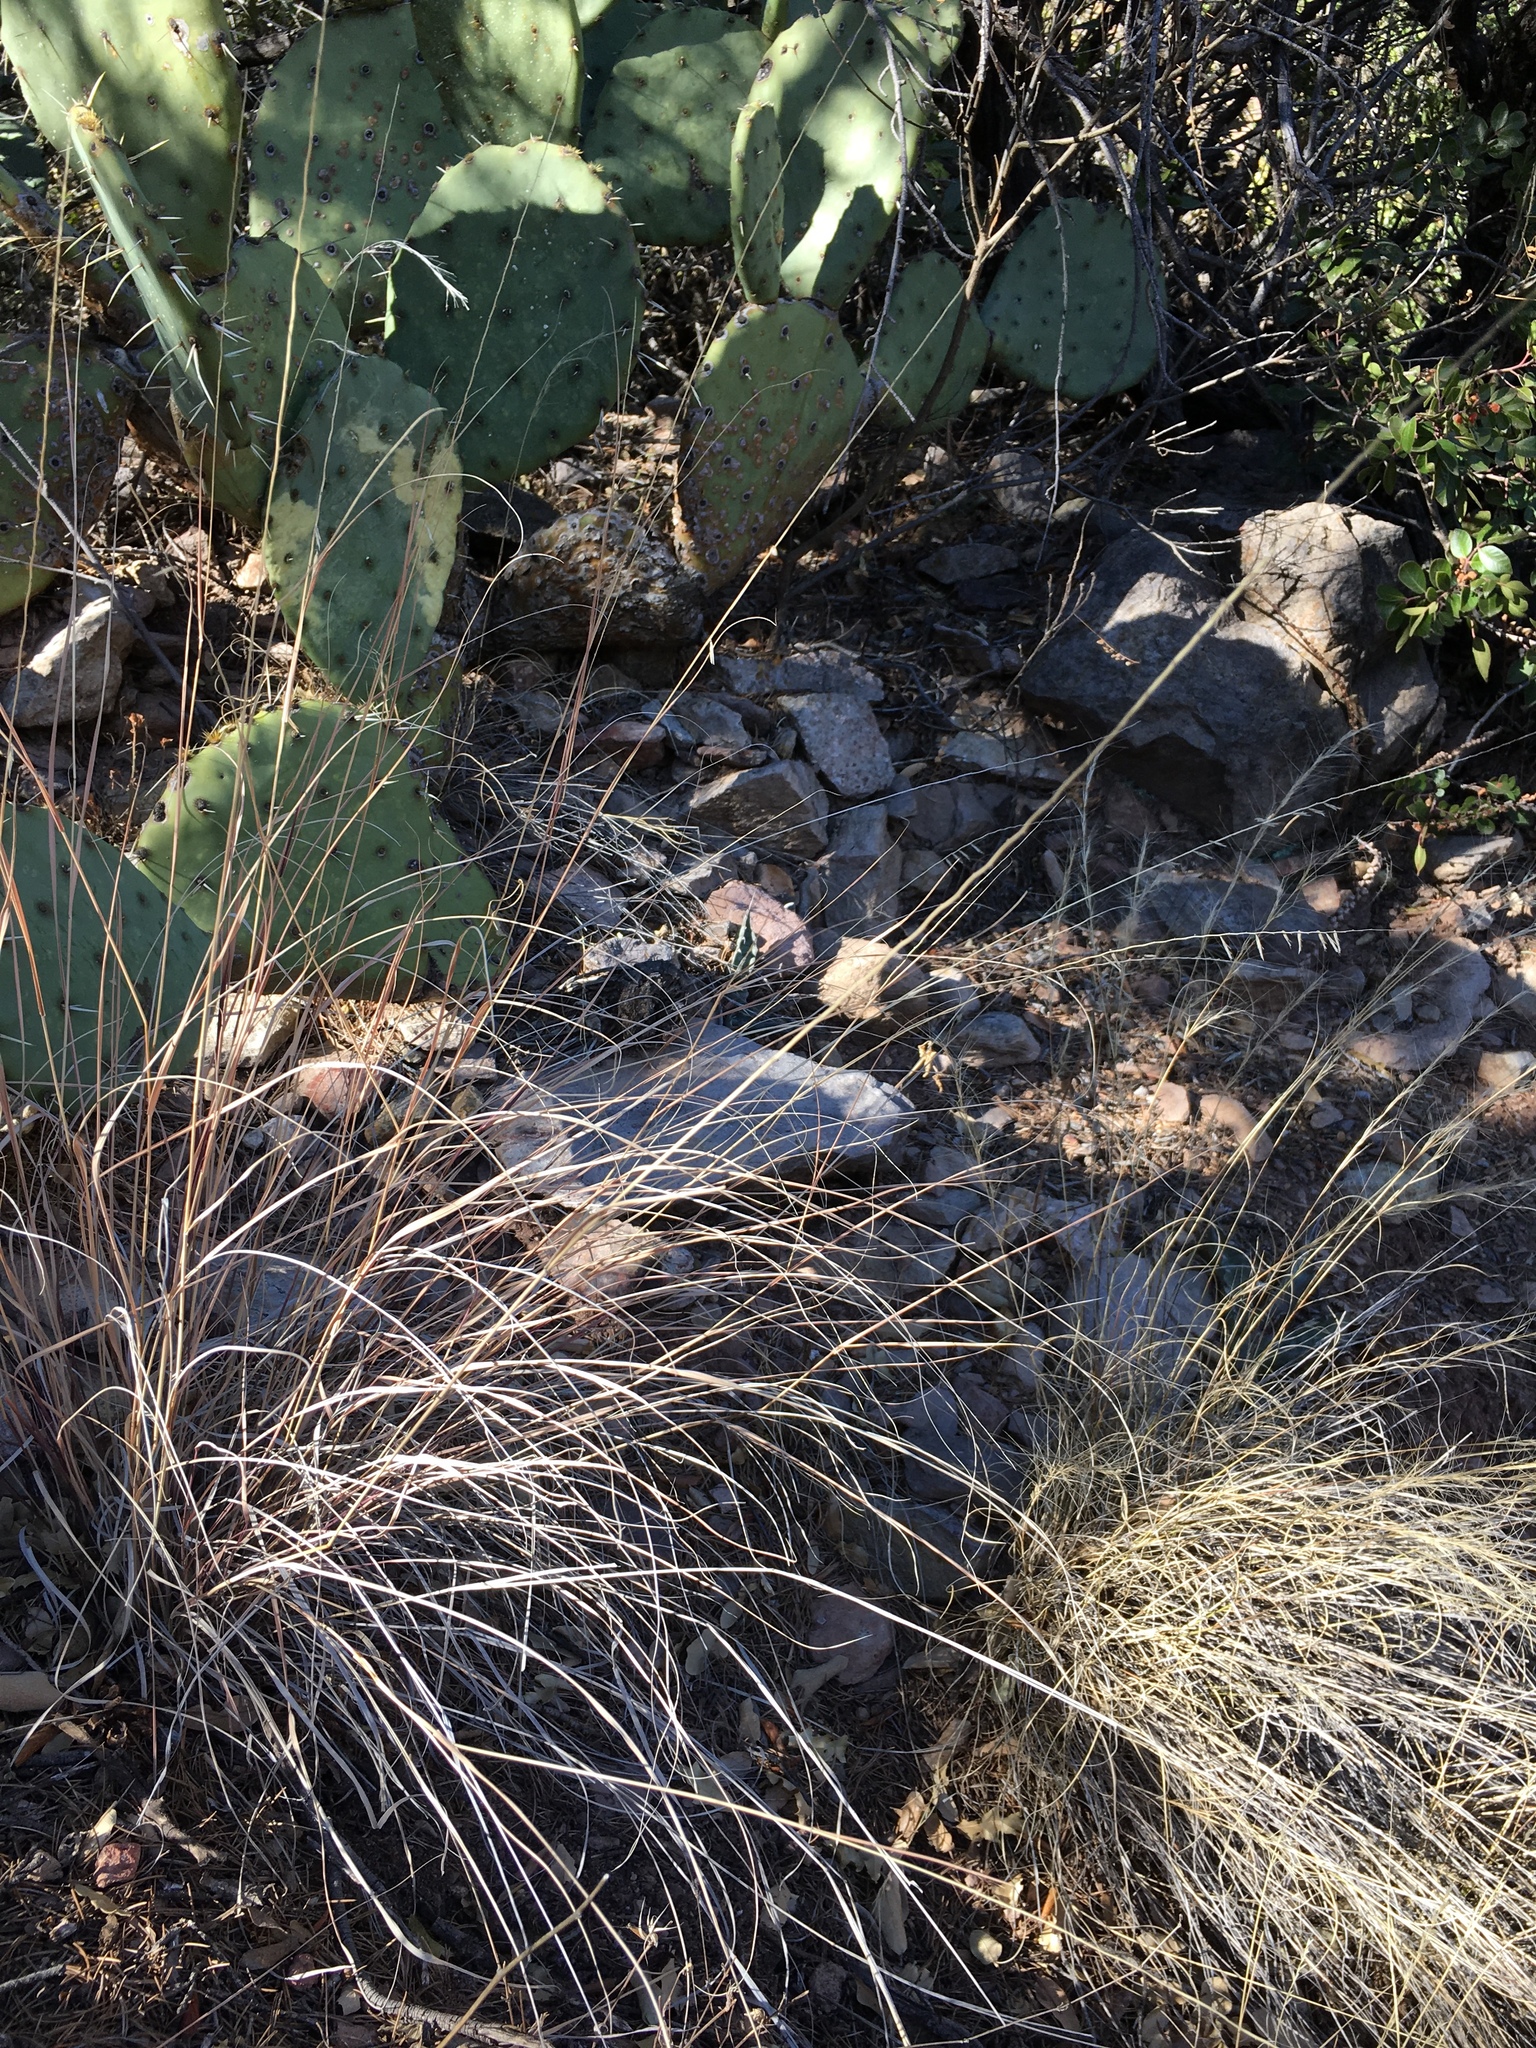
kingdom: Plantae
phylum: Tracheophyta
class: Liliopsida
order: Poales
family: Poaceae
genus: Bouteloua
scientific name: Bouteloua curtipendula
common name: Side-oats grama
